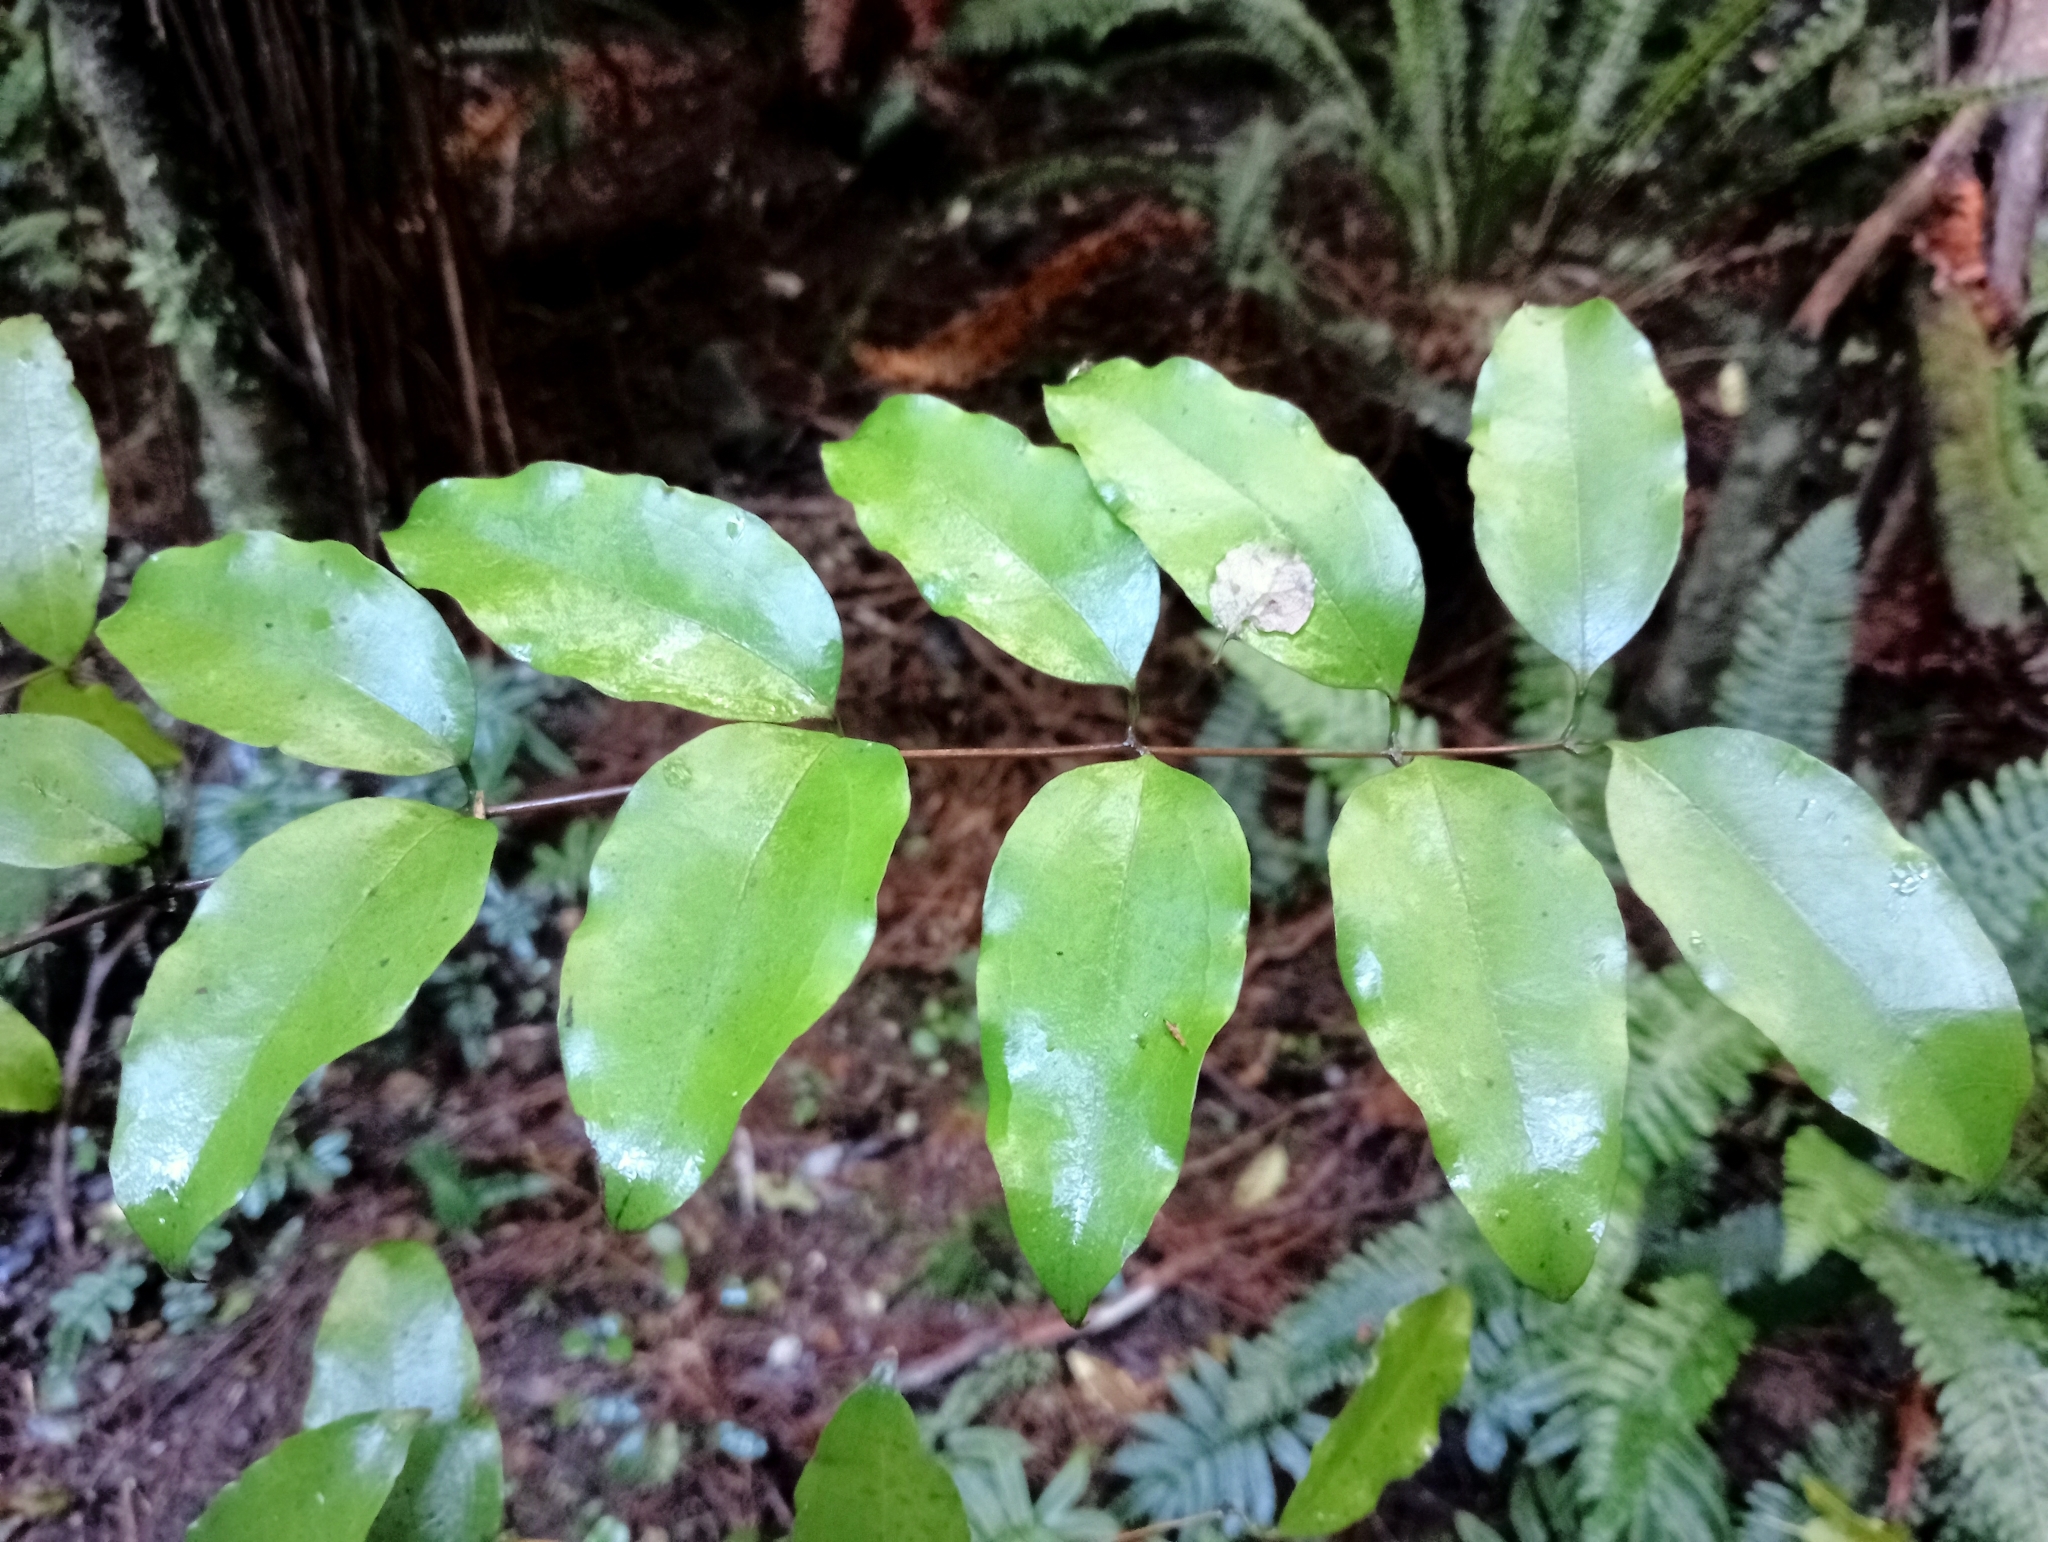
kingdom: Plantae
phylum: Tracheophyta
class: Liliopsida
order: Liliales
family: Ripogonaceae
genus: Ripogonum
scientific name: Ripogonum scandens
